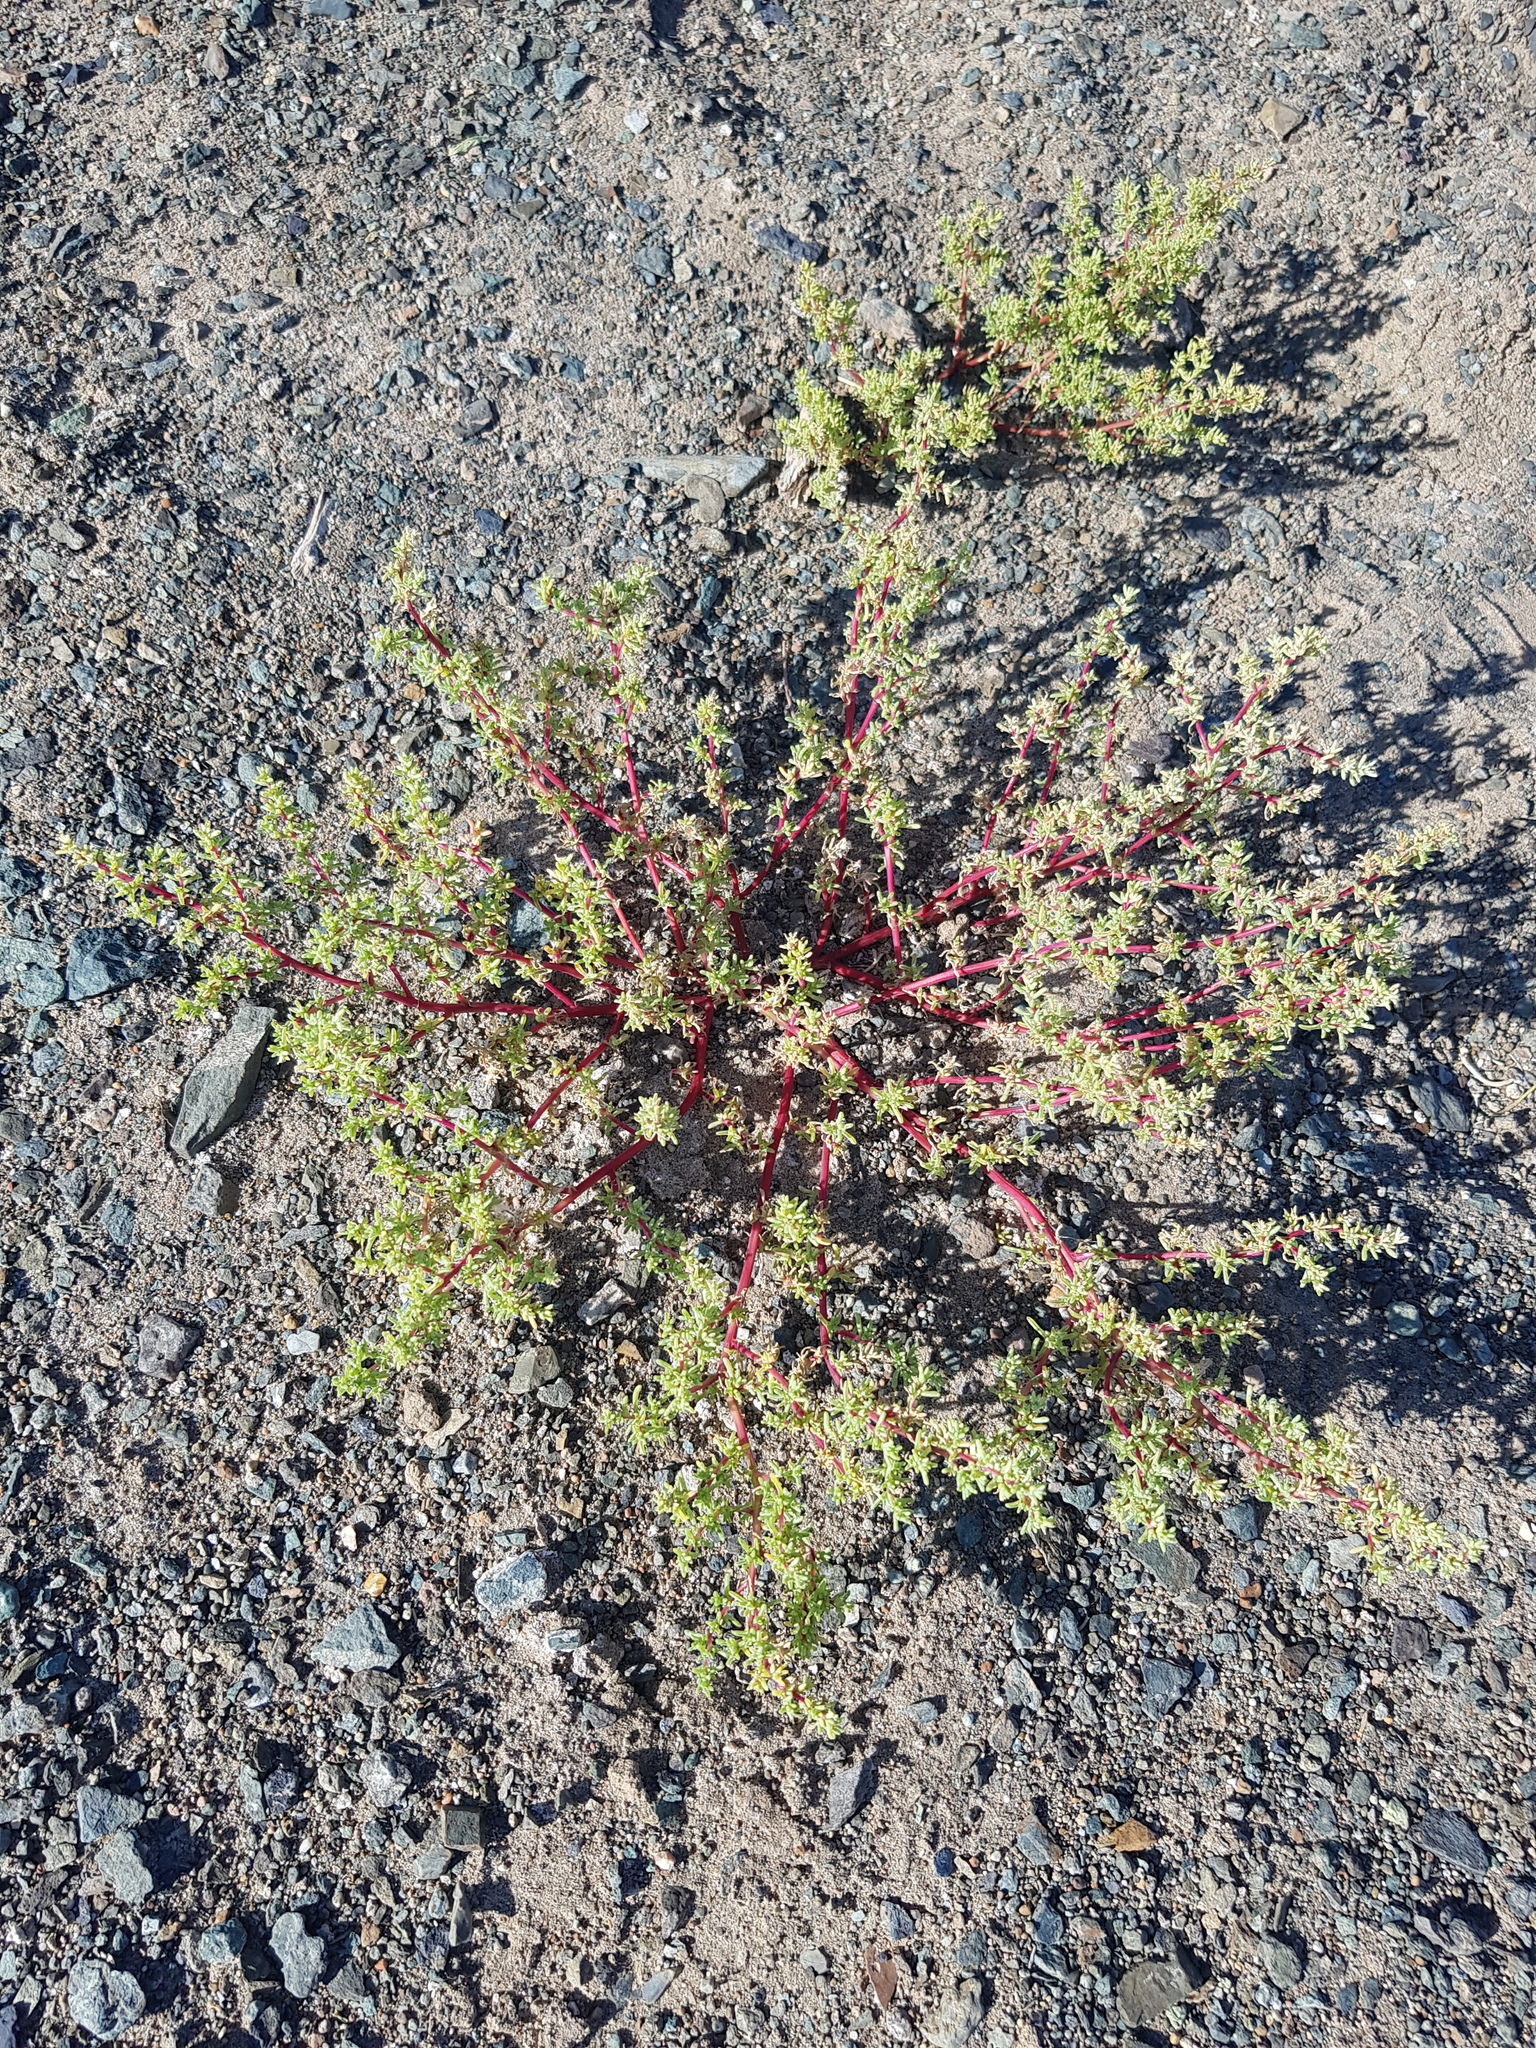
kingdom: Plantae
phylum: Tracheophyta
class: Magnoliopsida
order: Caryophyllales
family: Amaranthaceae
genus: Halogeton
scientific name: Halogeton arachnoides
